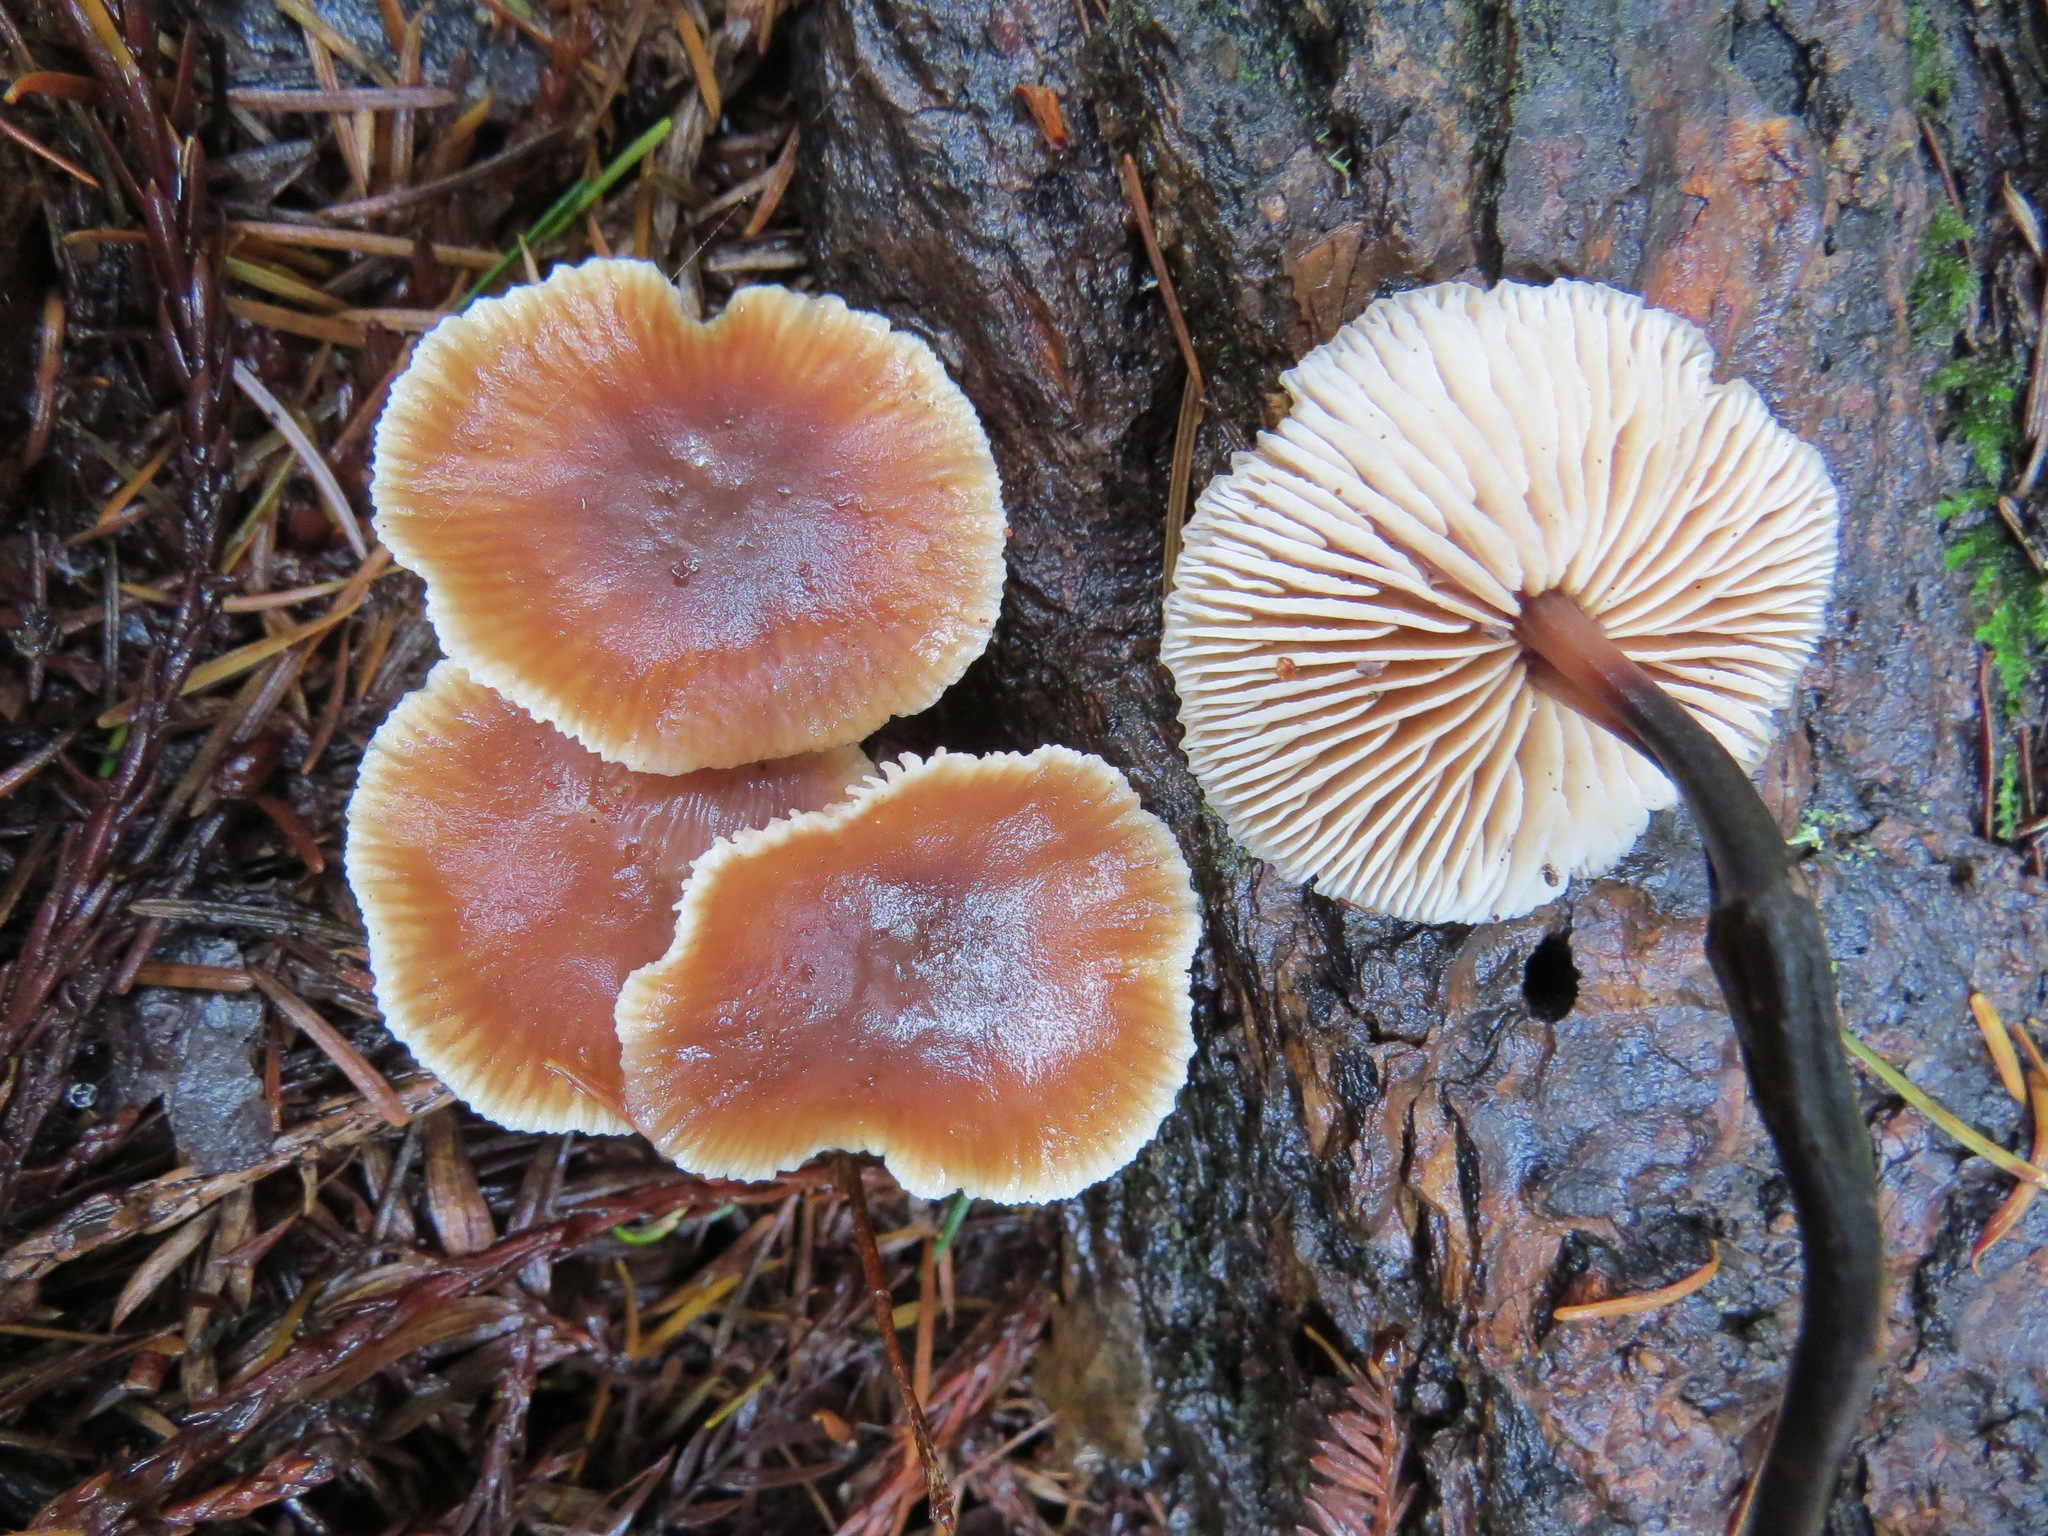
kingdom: Fungi
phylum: Basidiomycota
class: Agaricomycetes
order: Agaricales
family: Omphalotaceae
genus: Gymnopus
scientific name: Gymnopus brassicolens
